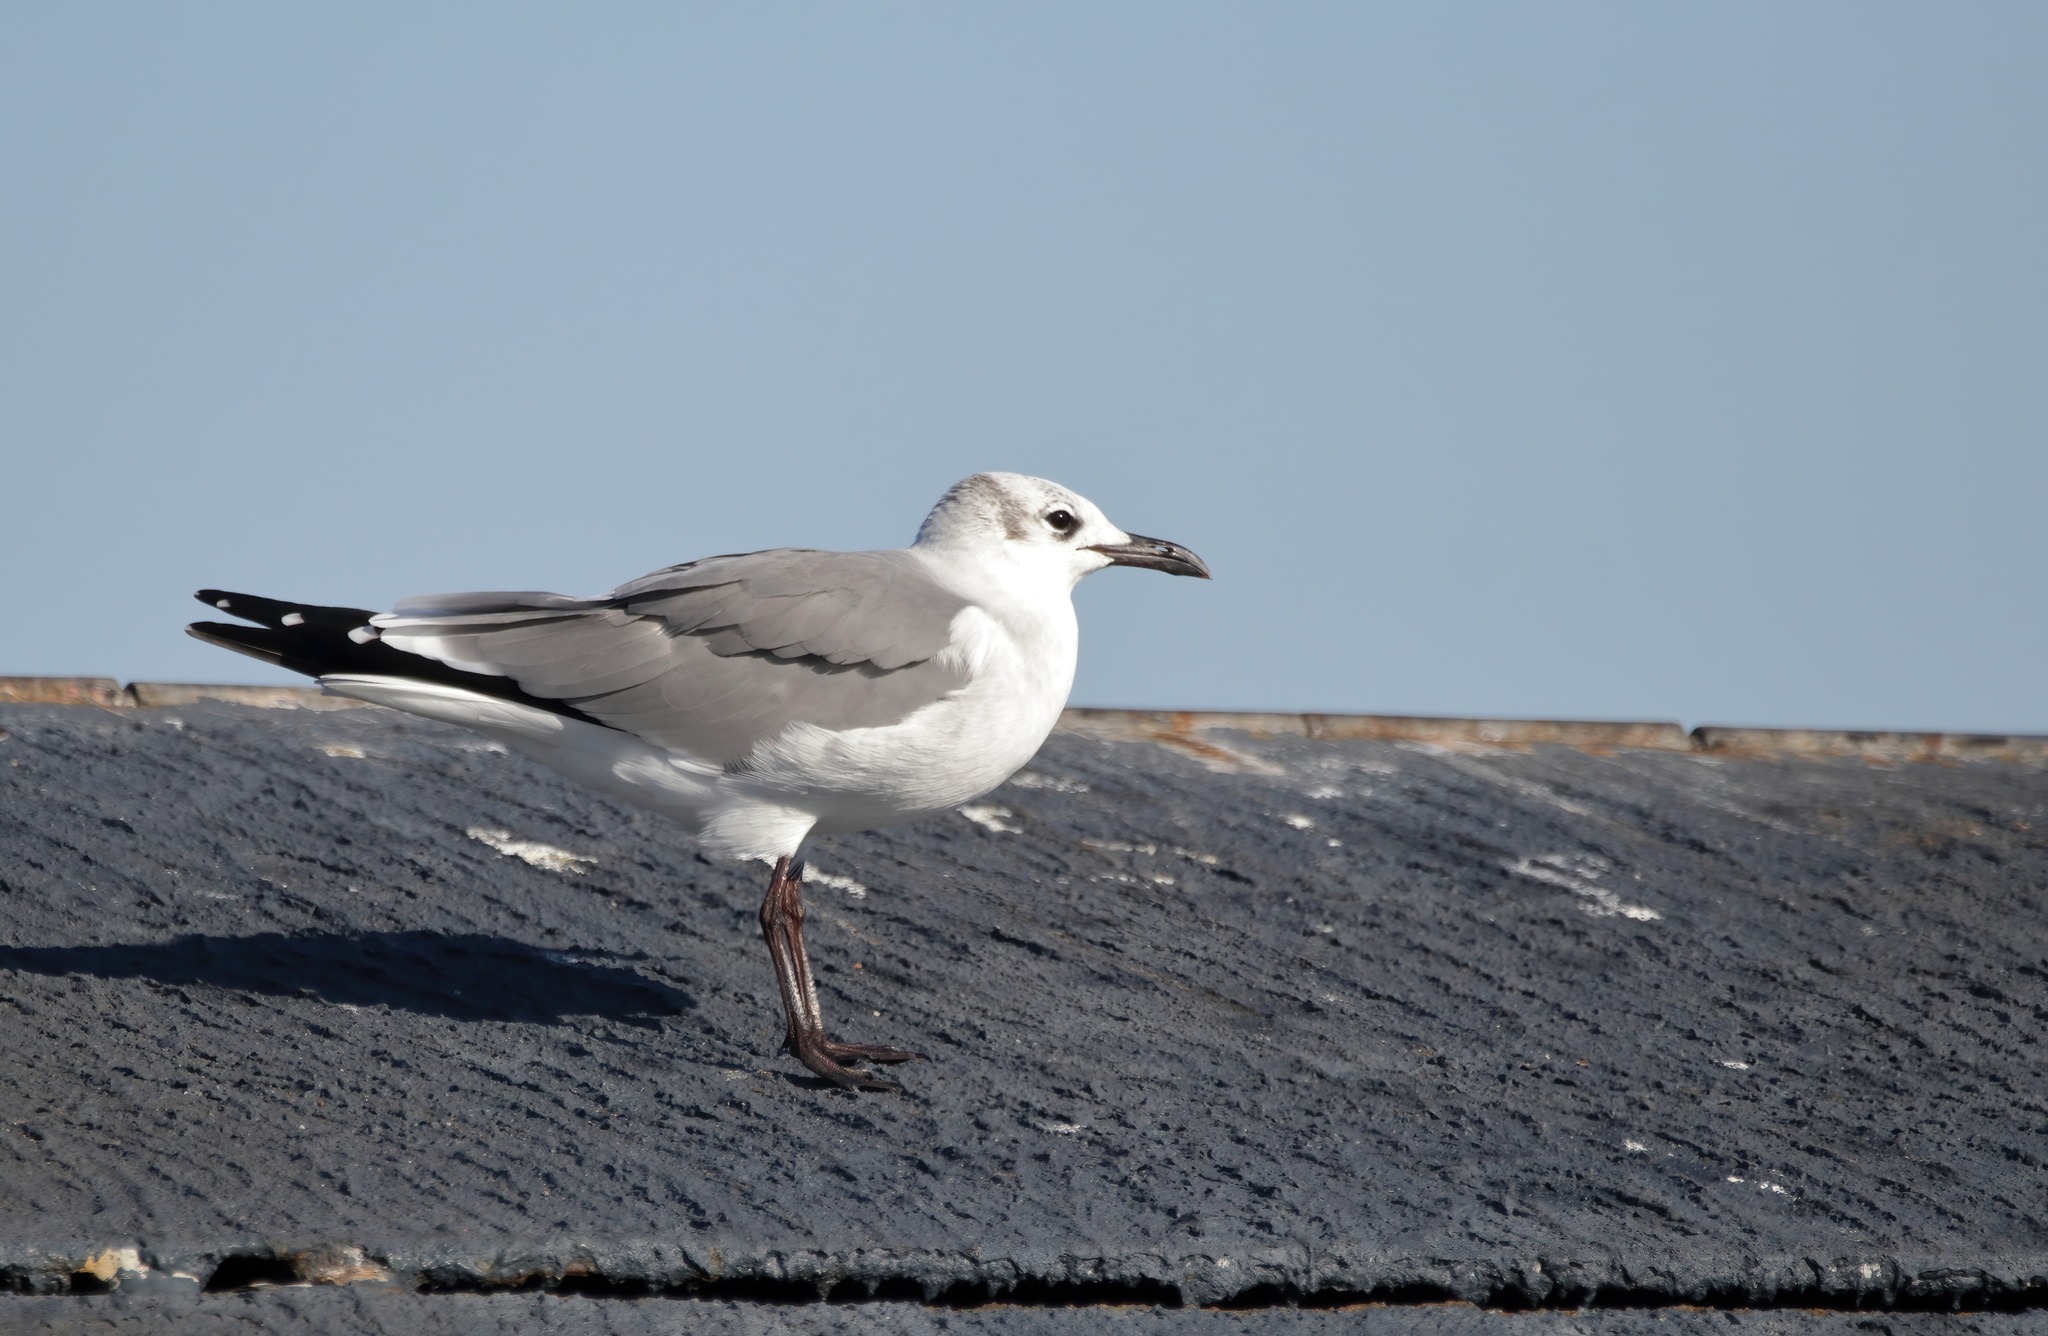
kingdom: Animalia
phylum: Chordata
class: Aves
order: Charadriiformes
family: Laridae
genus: Leucophaeus
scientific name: Leucophaeus atricilla
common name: Laughing gull
